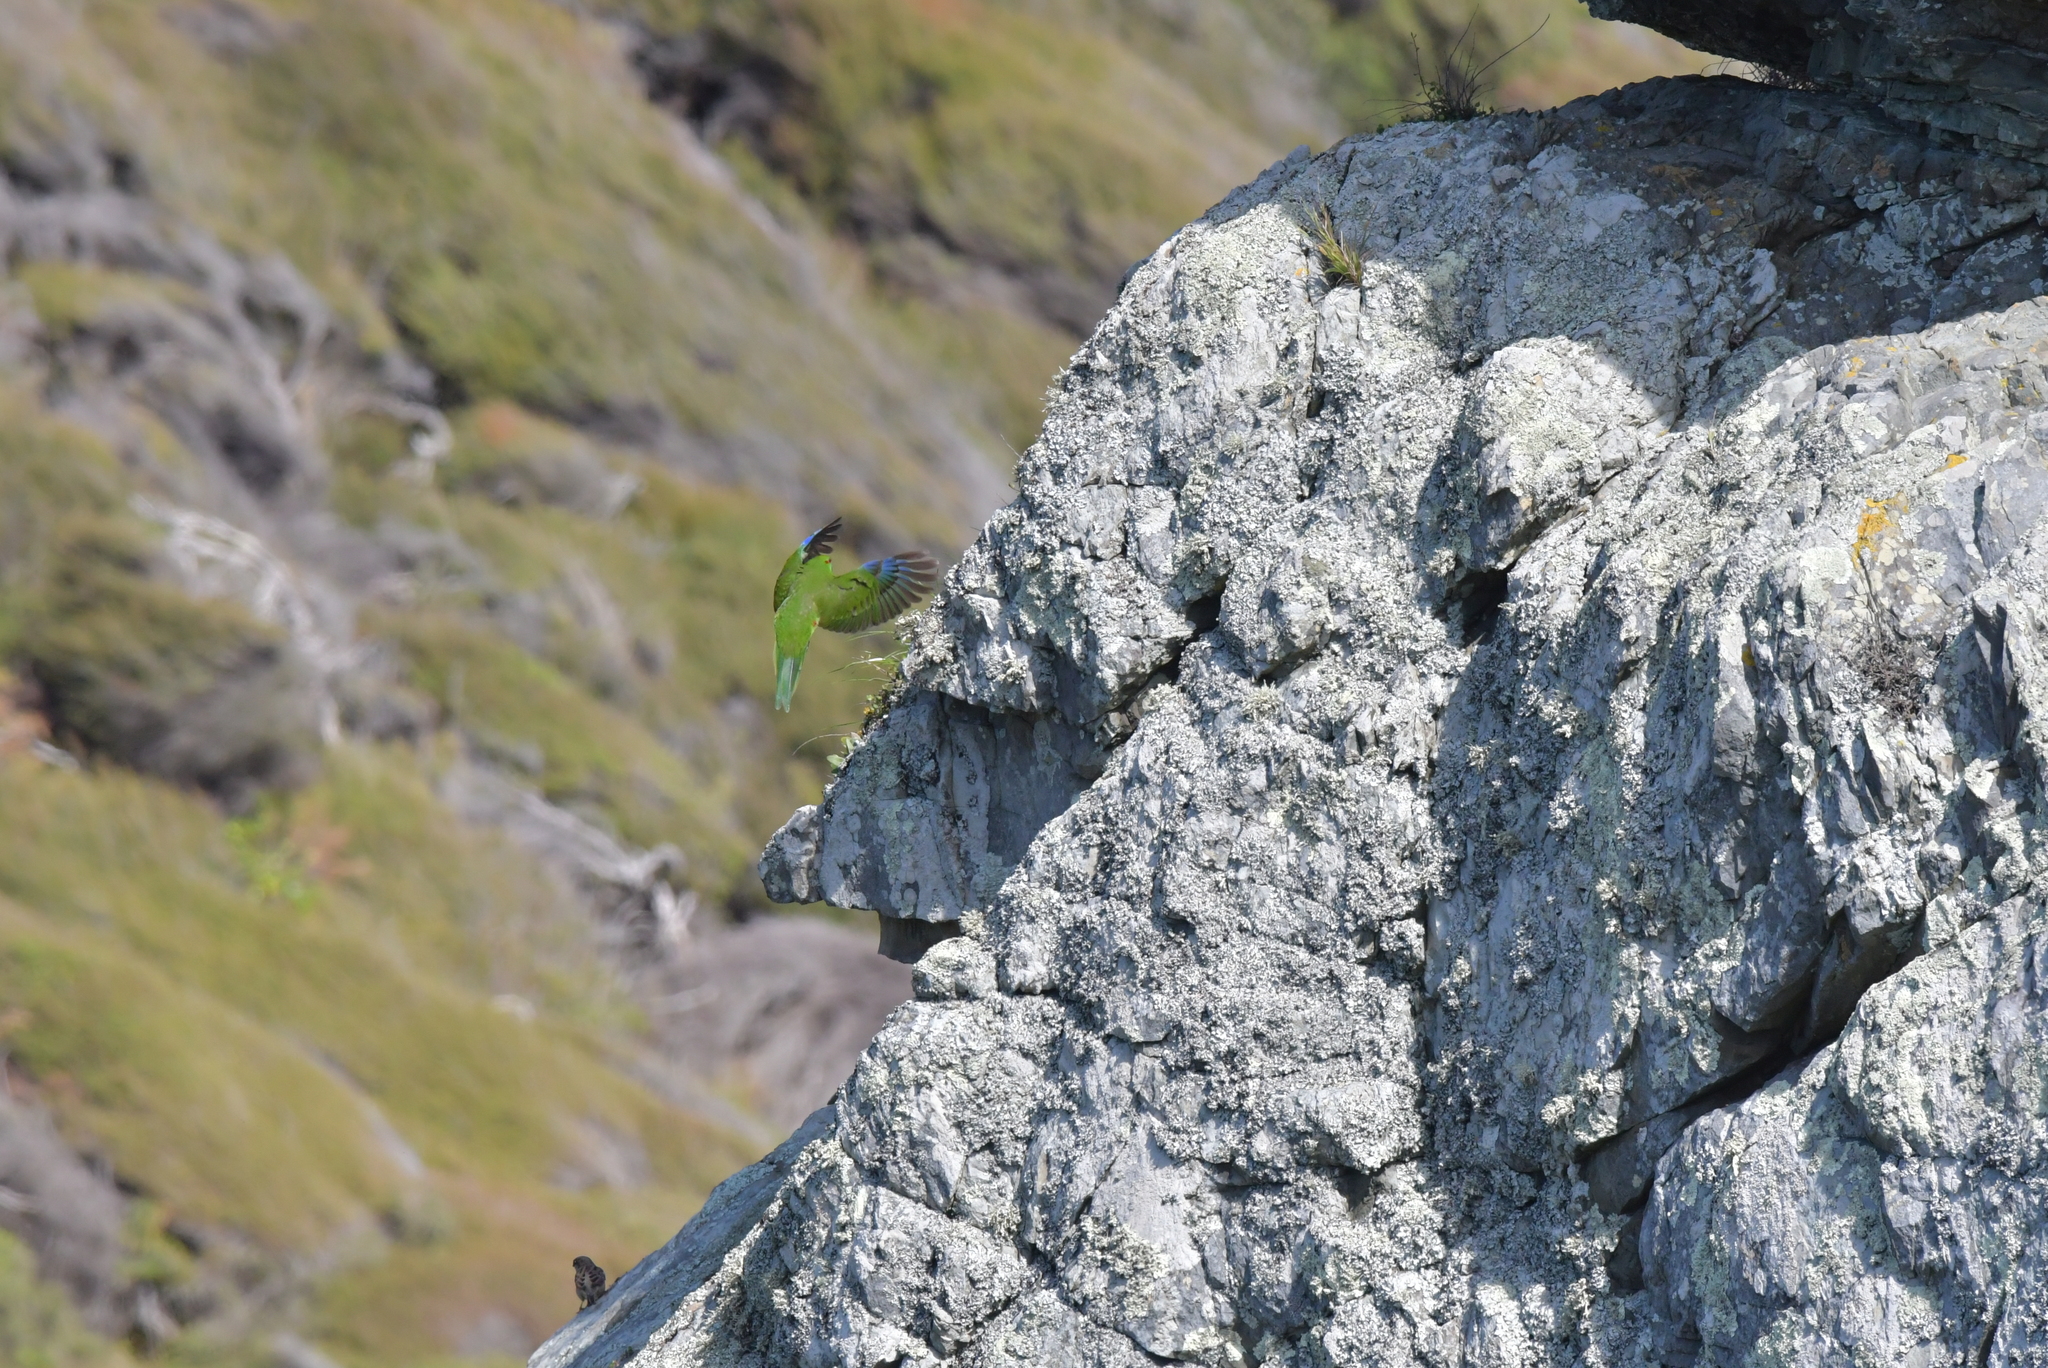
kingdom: Animalia
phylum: Chordata
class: Aves
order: Psittaciformes
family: Psittacidae
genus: Cyanoramphus
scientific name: Cyanoramphus novaezelandiae
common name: Red-fronted parakeet
